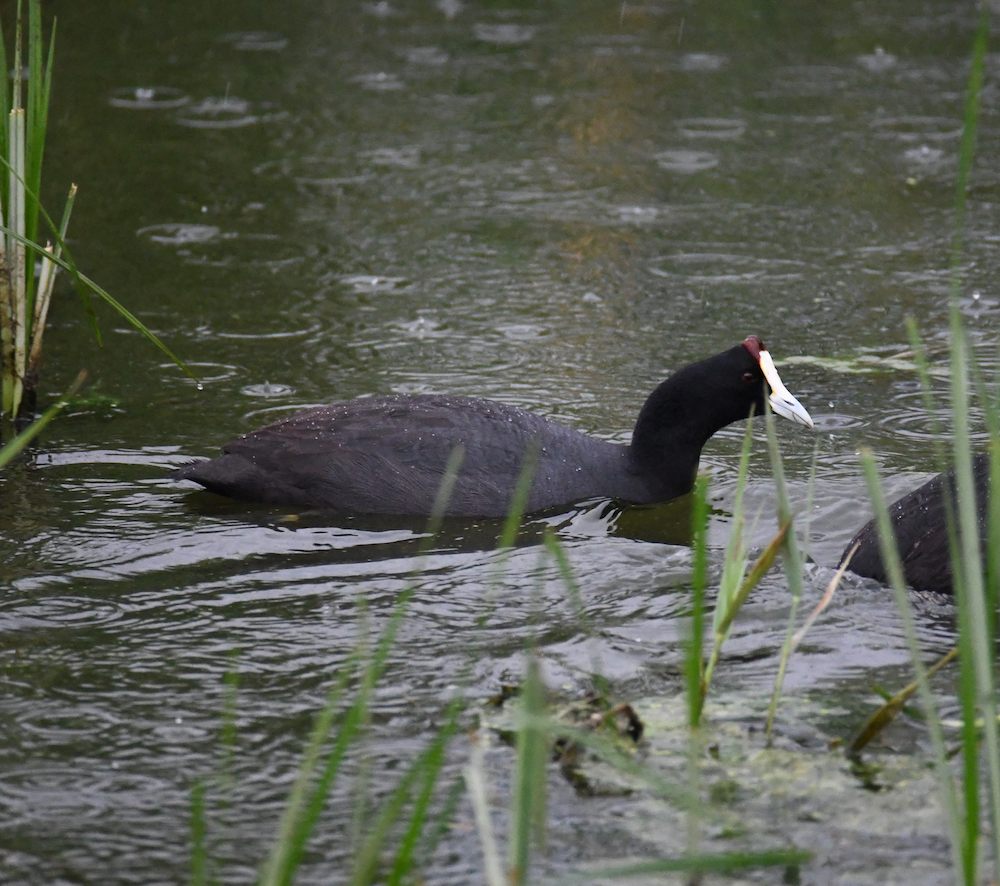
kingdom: Animalia
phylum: Chordata
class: Aves
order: Gruiformes
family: Rallidae
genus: Fulica
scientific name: Fulica cristata
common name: Red-knobbed coot
